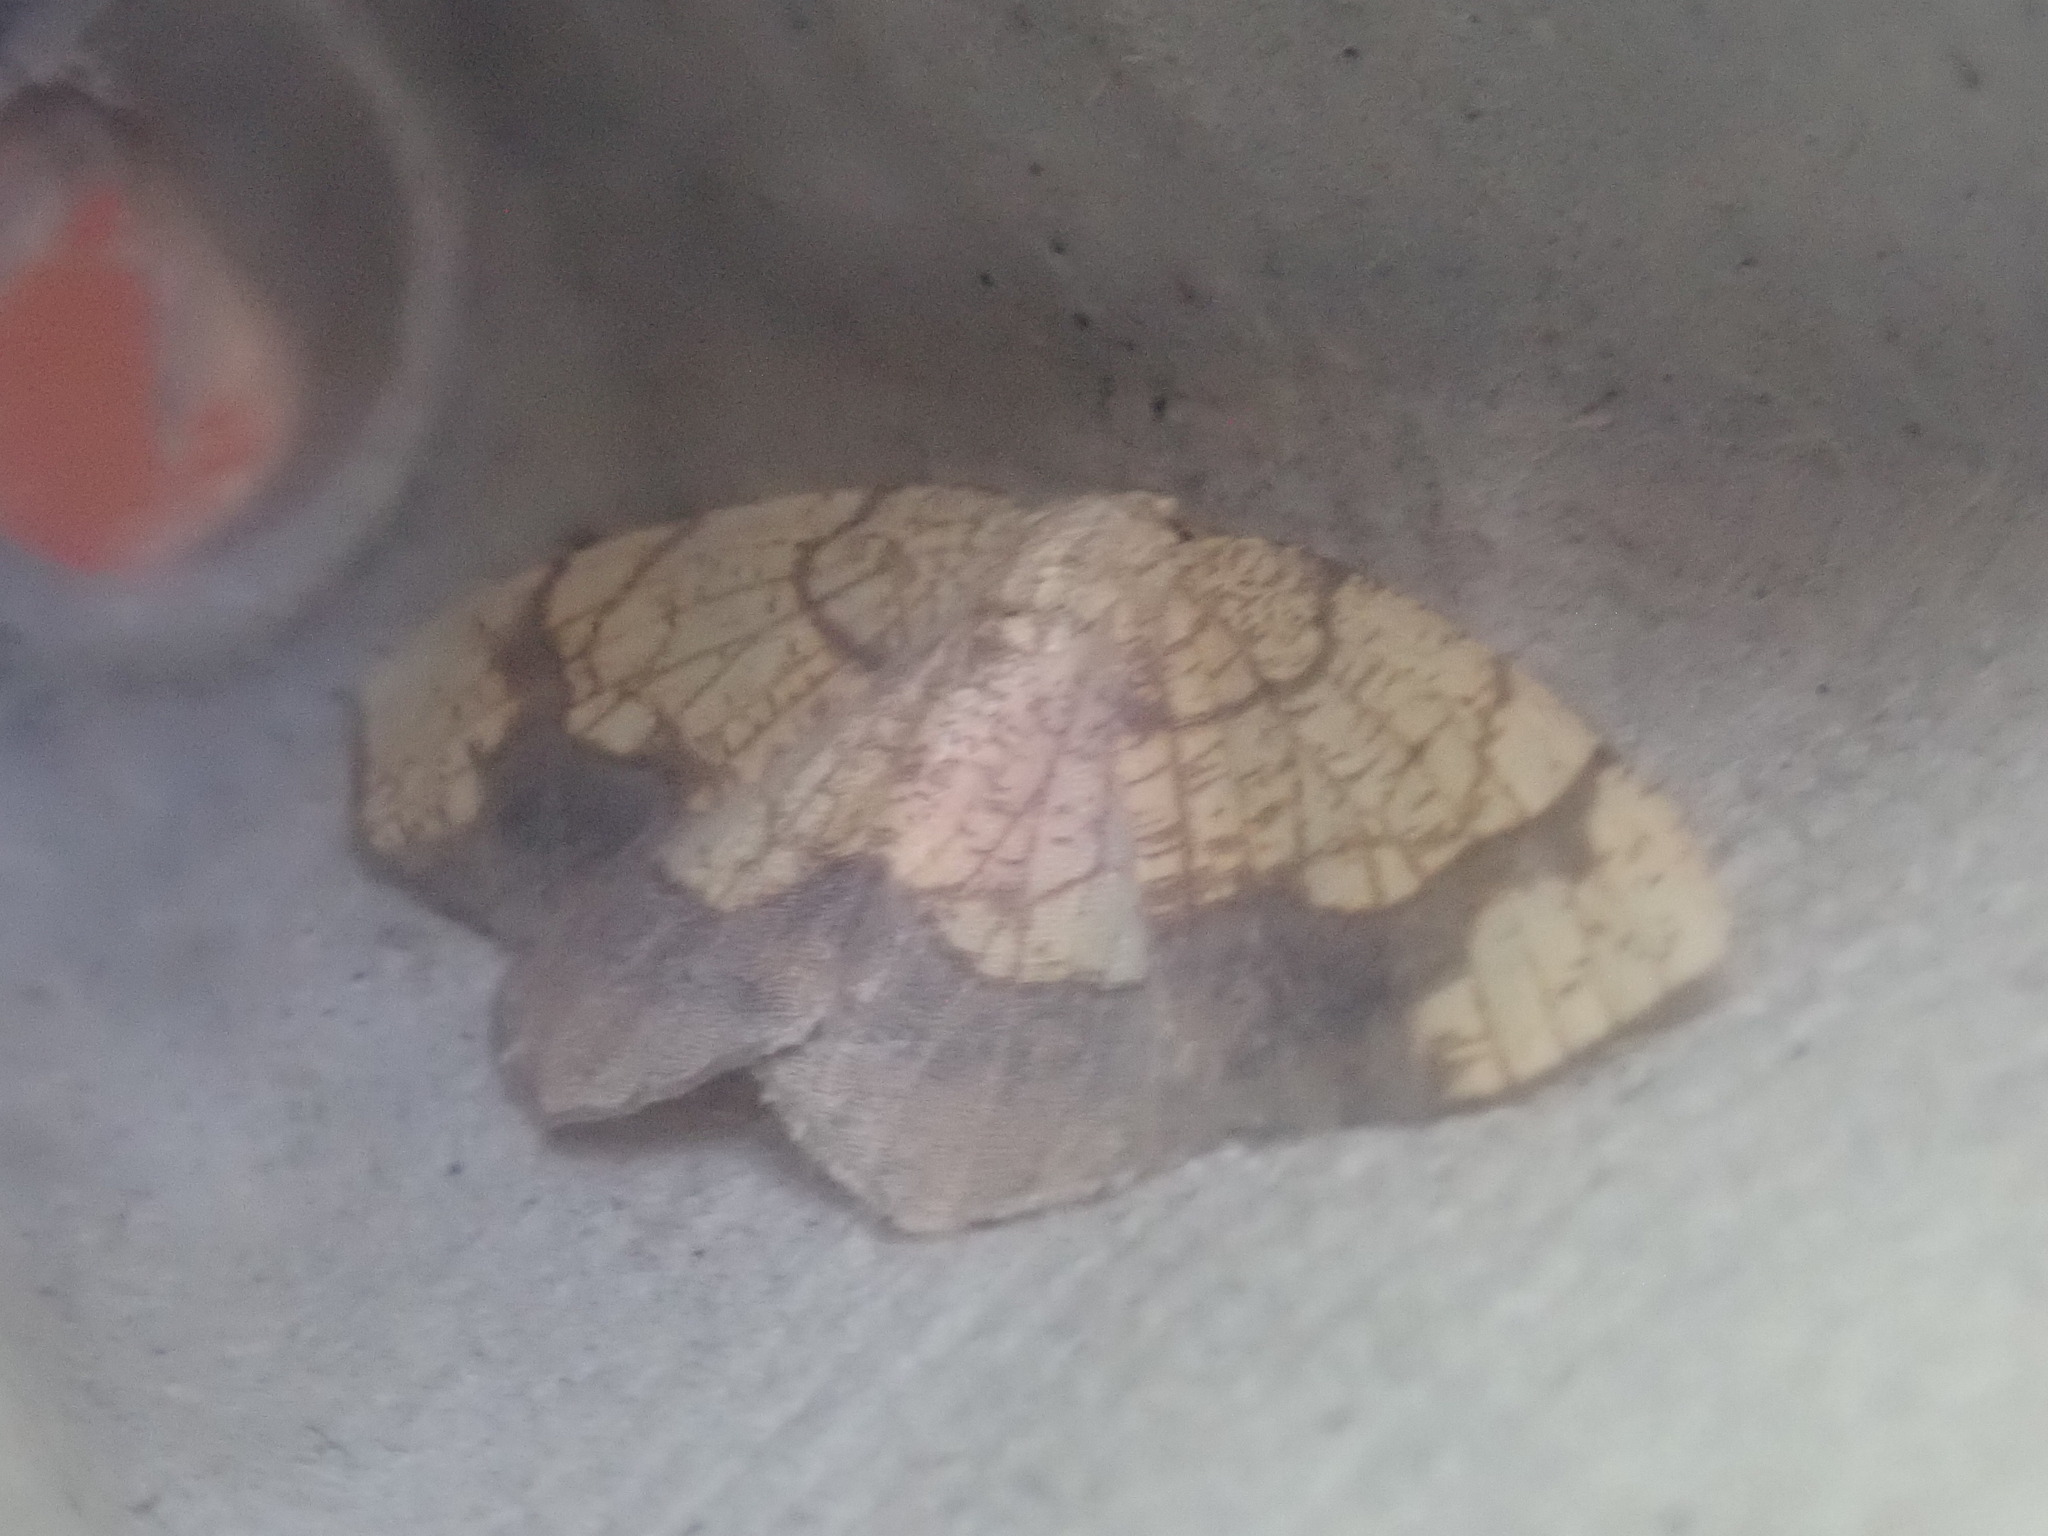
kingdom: Animalia
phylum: Arthropoda
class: Insecta
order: Lepidoptera
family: Geometridae
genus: Nematocampa
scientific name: Nematocampa resistaria
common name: Horned spanworm moth
